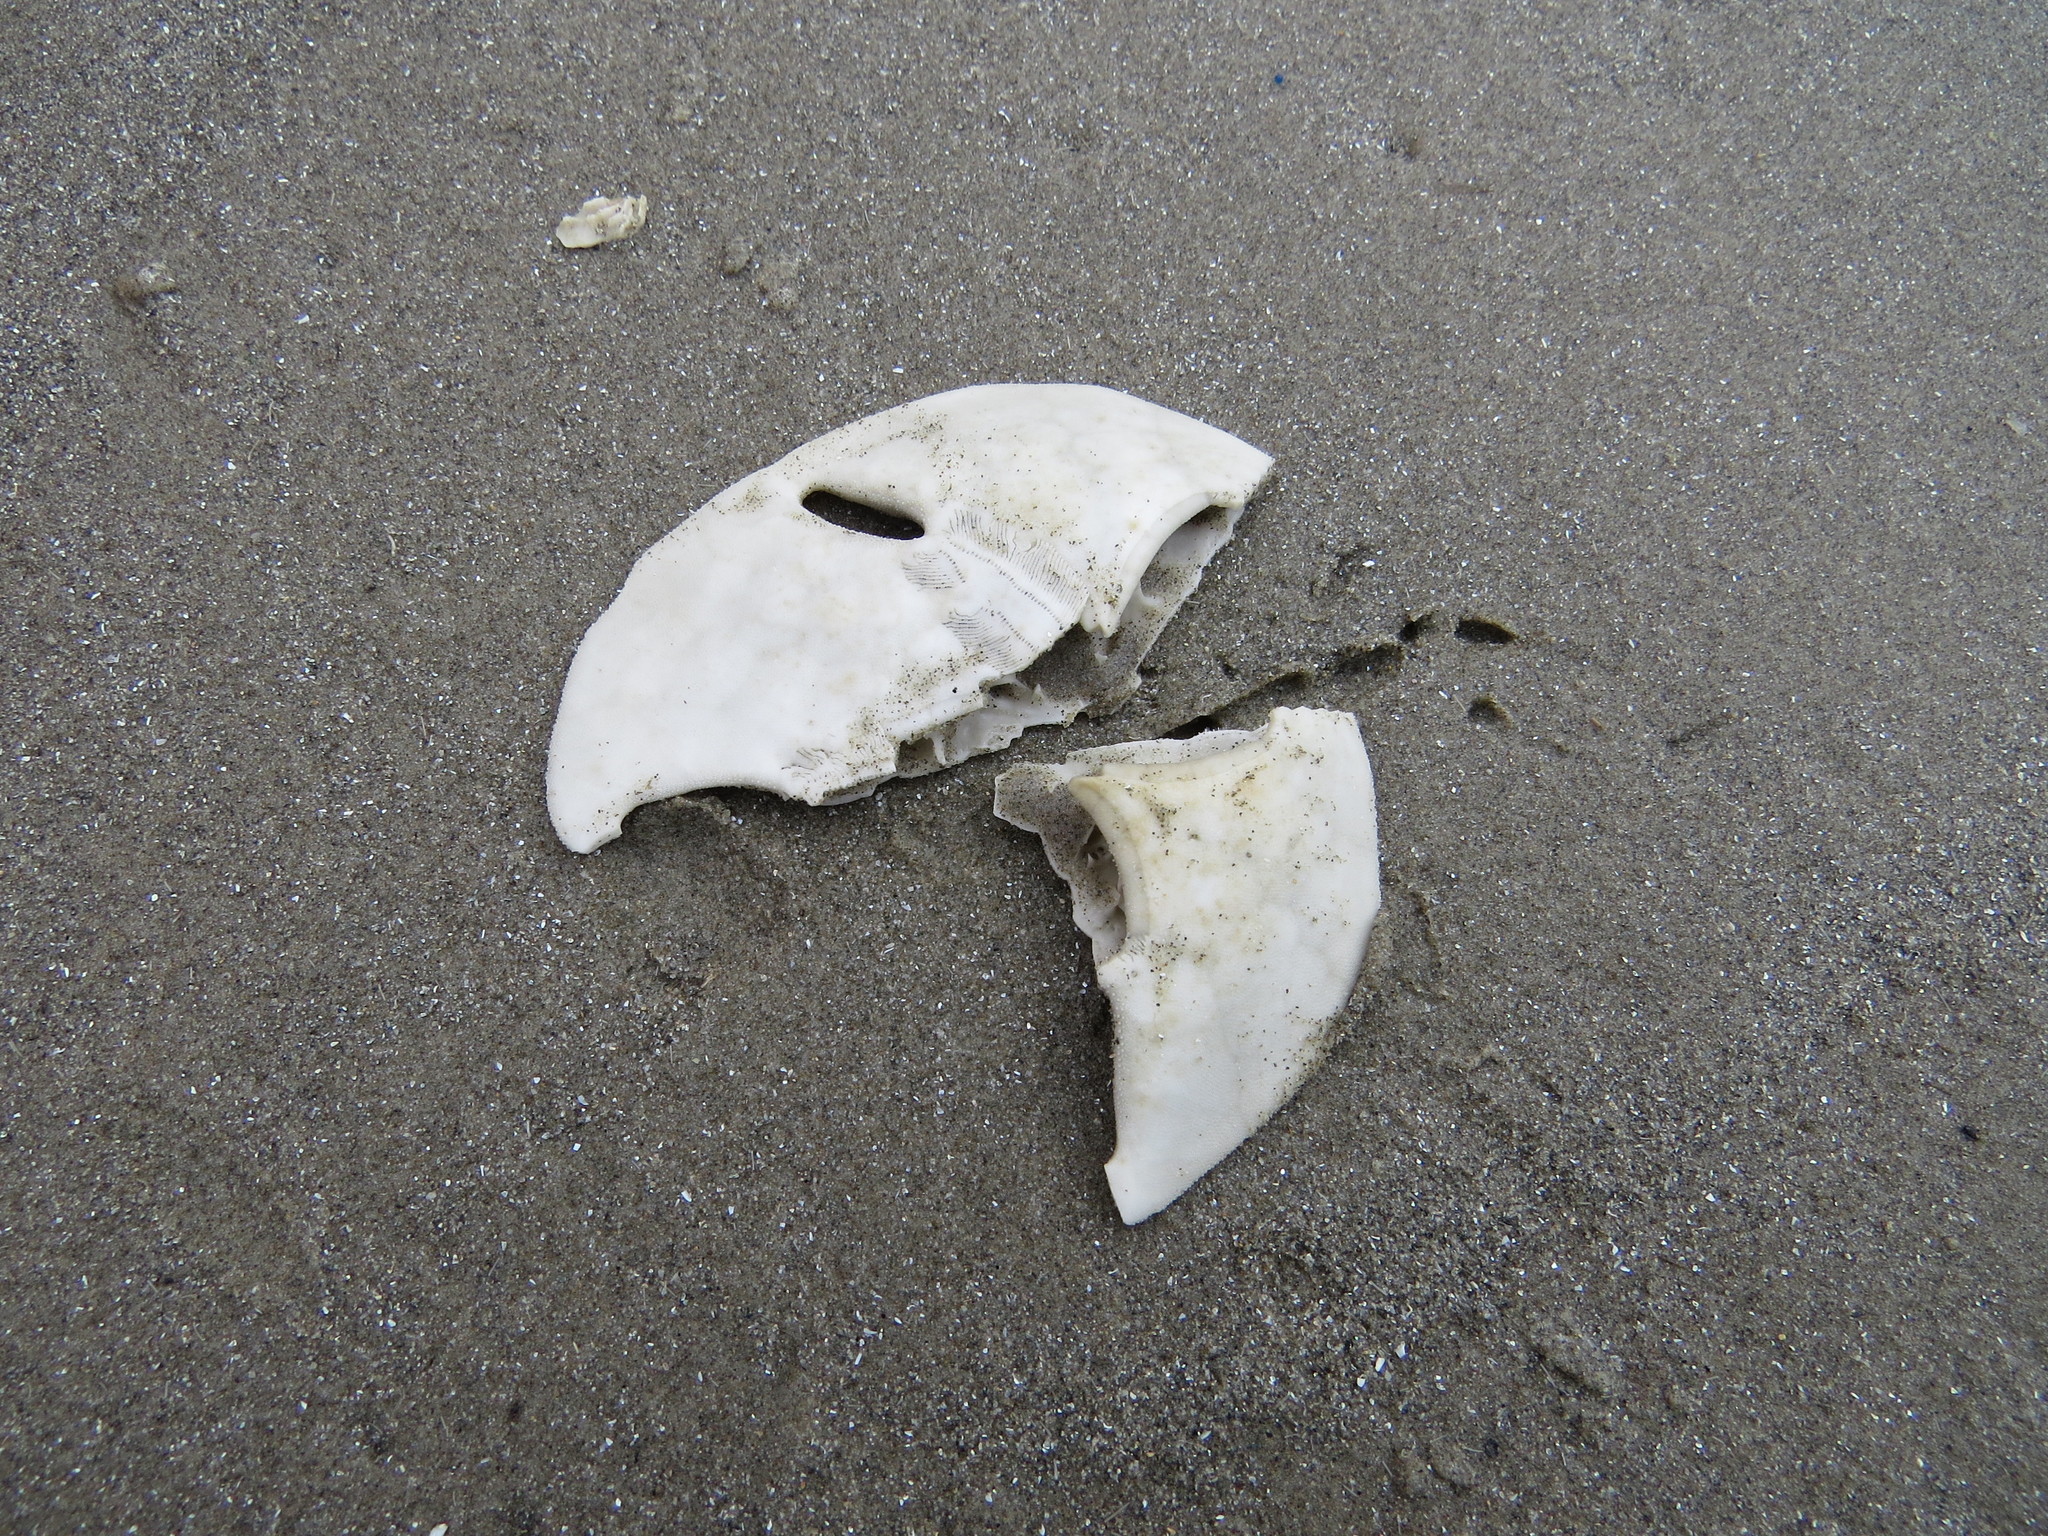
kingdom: Animalia
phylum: Echinodermata
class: Echinoidea
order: Echinolampadacea
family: Mellitidae
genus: Mellita
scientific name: Mellita quinquiesperforata
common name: Sand dollar
